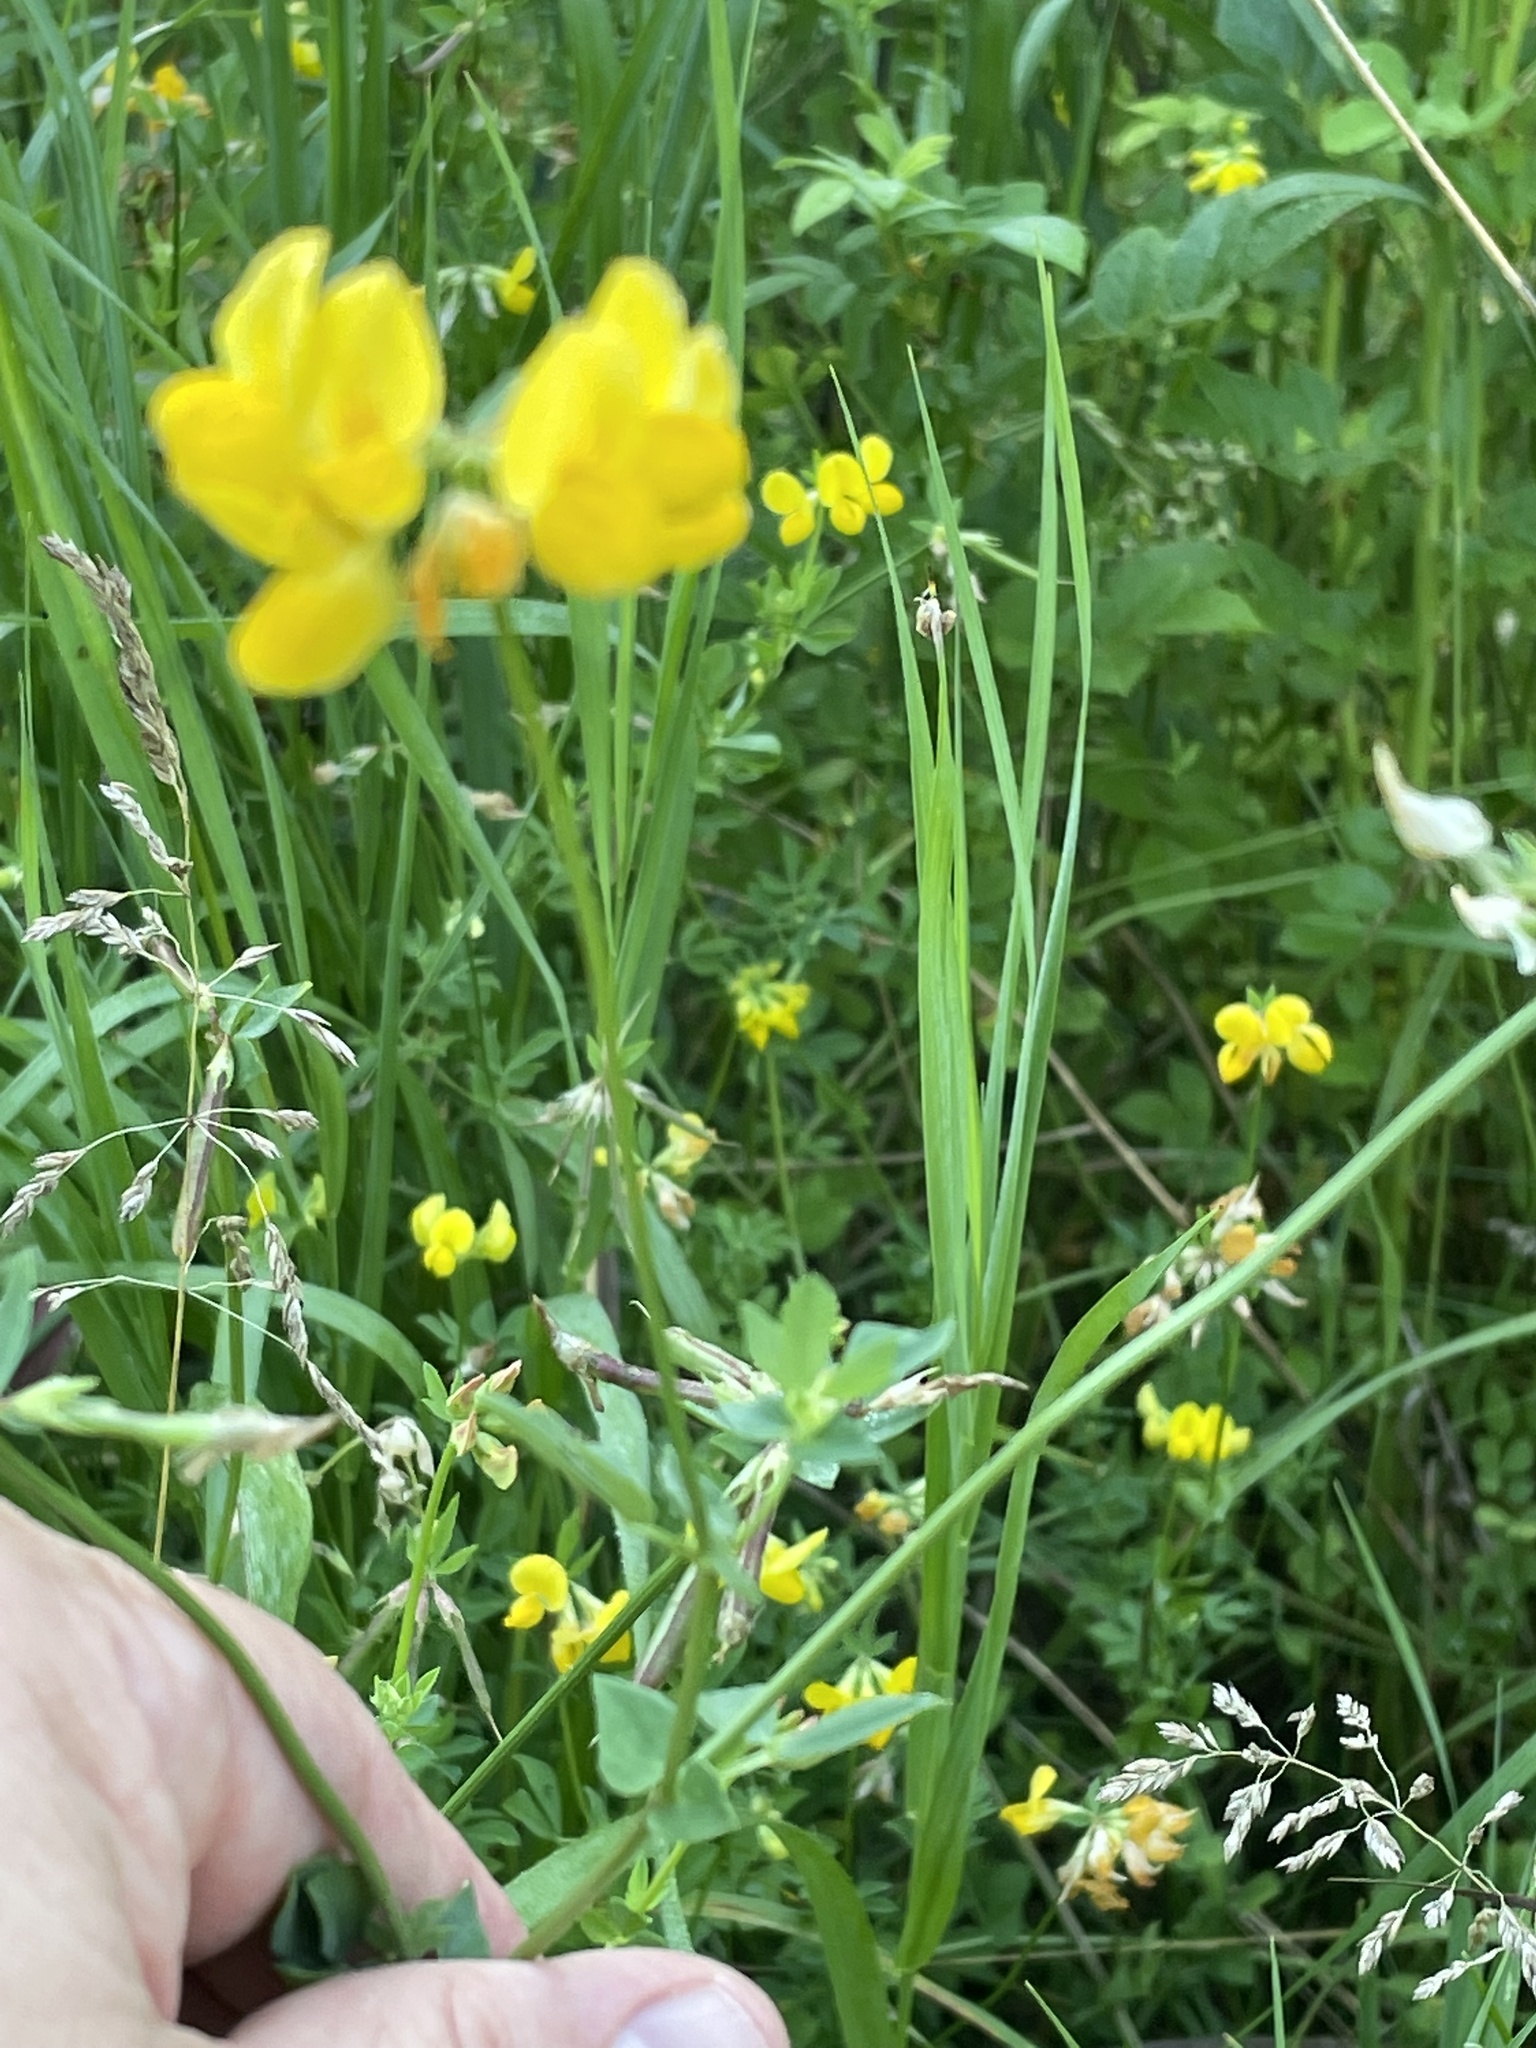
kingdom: Plantae
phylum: Tracheophyta
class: Magnoliopsida
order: Fabales
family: Fabaceae
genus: Lotus
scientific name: Lotus corniculatus
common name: Common bird's-foot-trefoil
